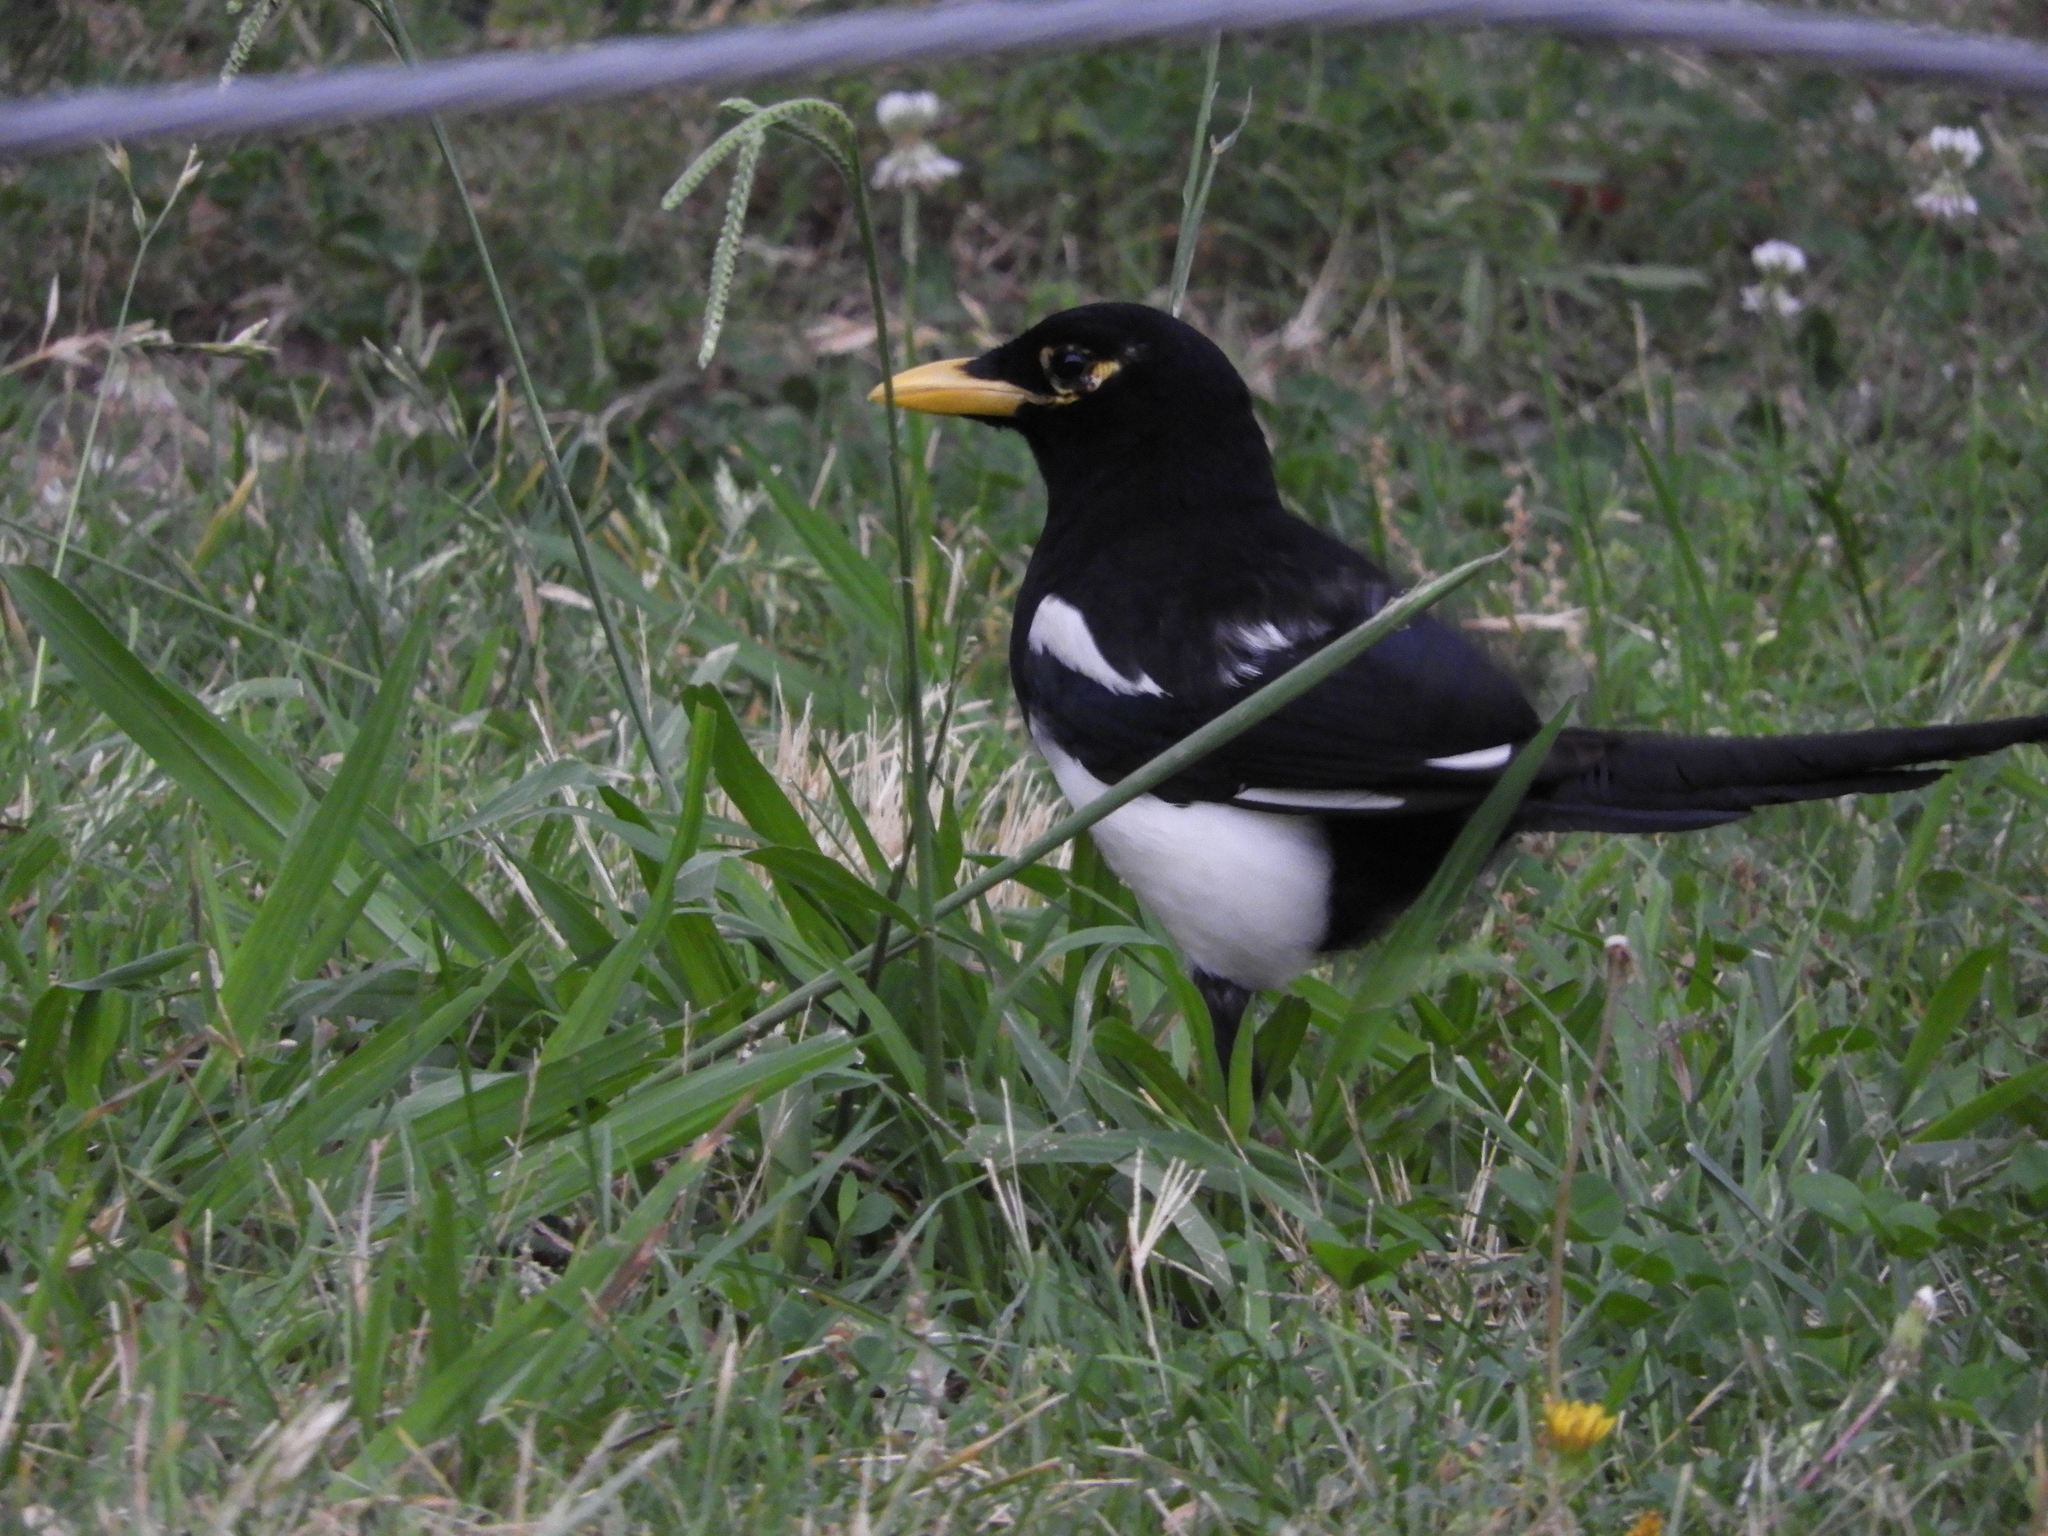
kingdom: Animalia
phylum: Chordata
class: Aves
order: Passeriformes
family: Corvidae
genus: Pica
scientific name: Pica nuttalli
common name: Yellow-billed magpie
